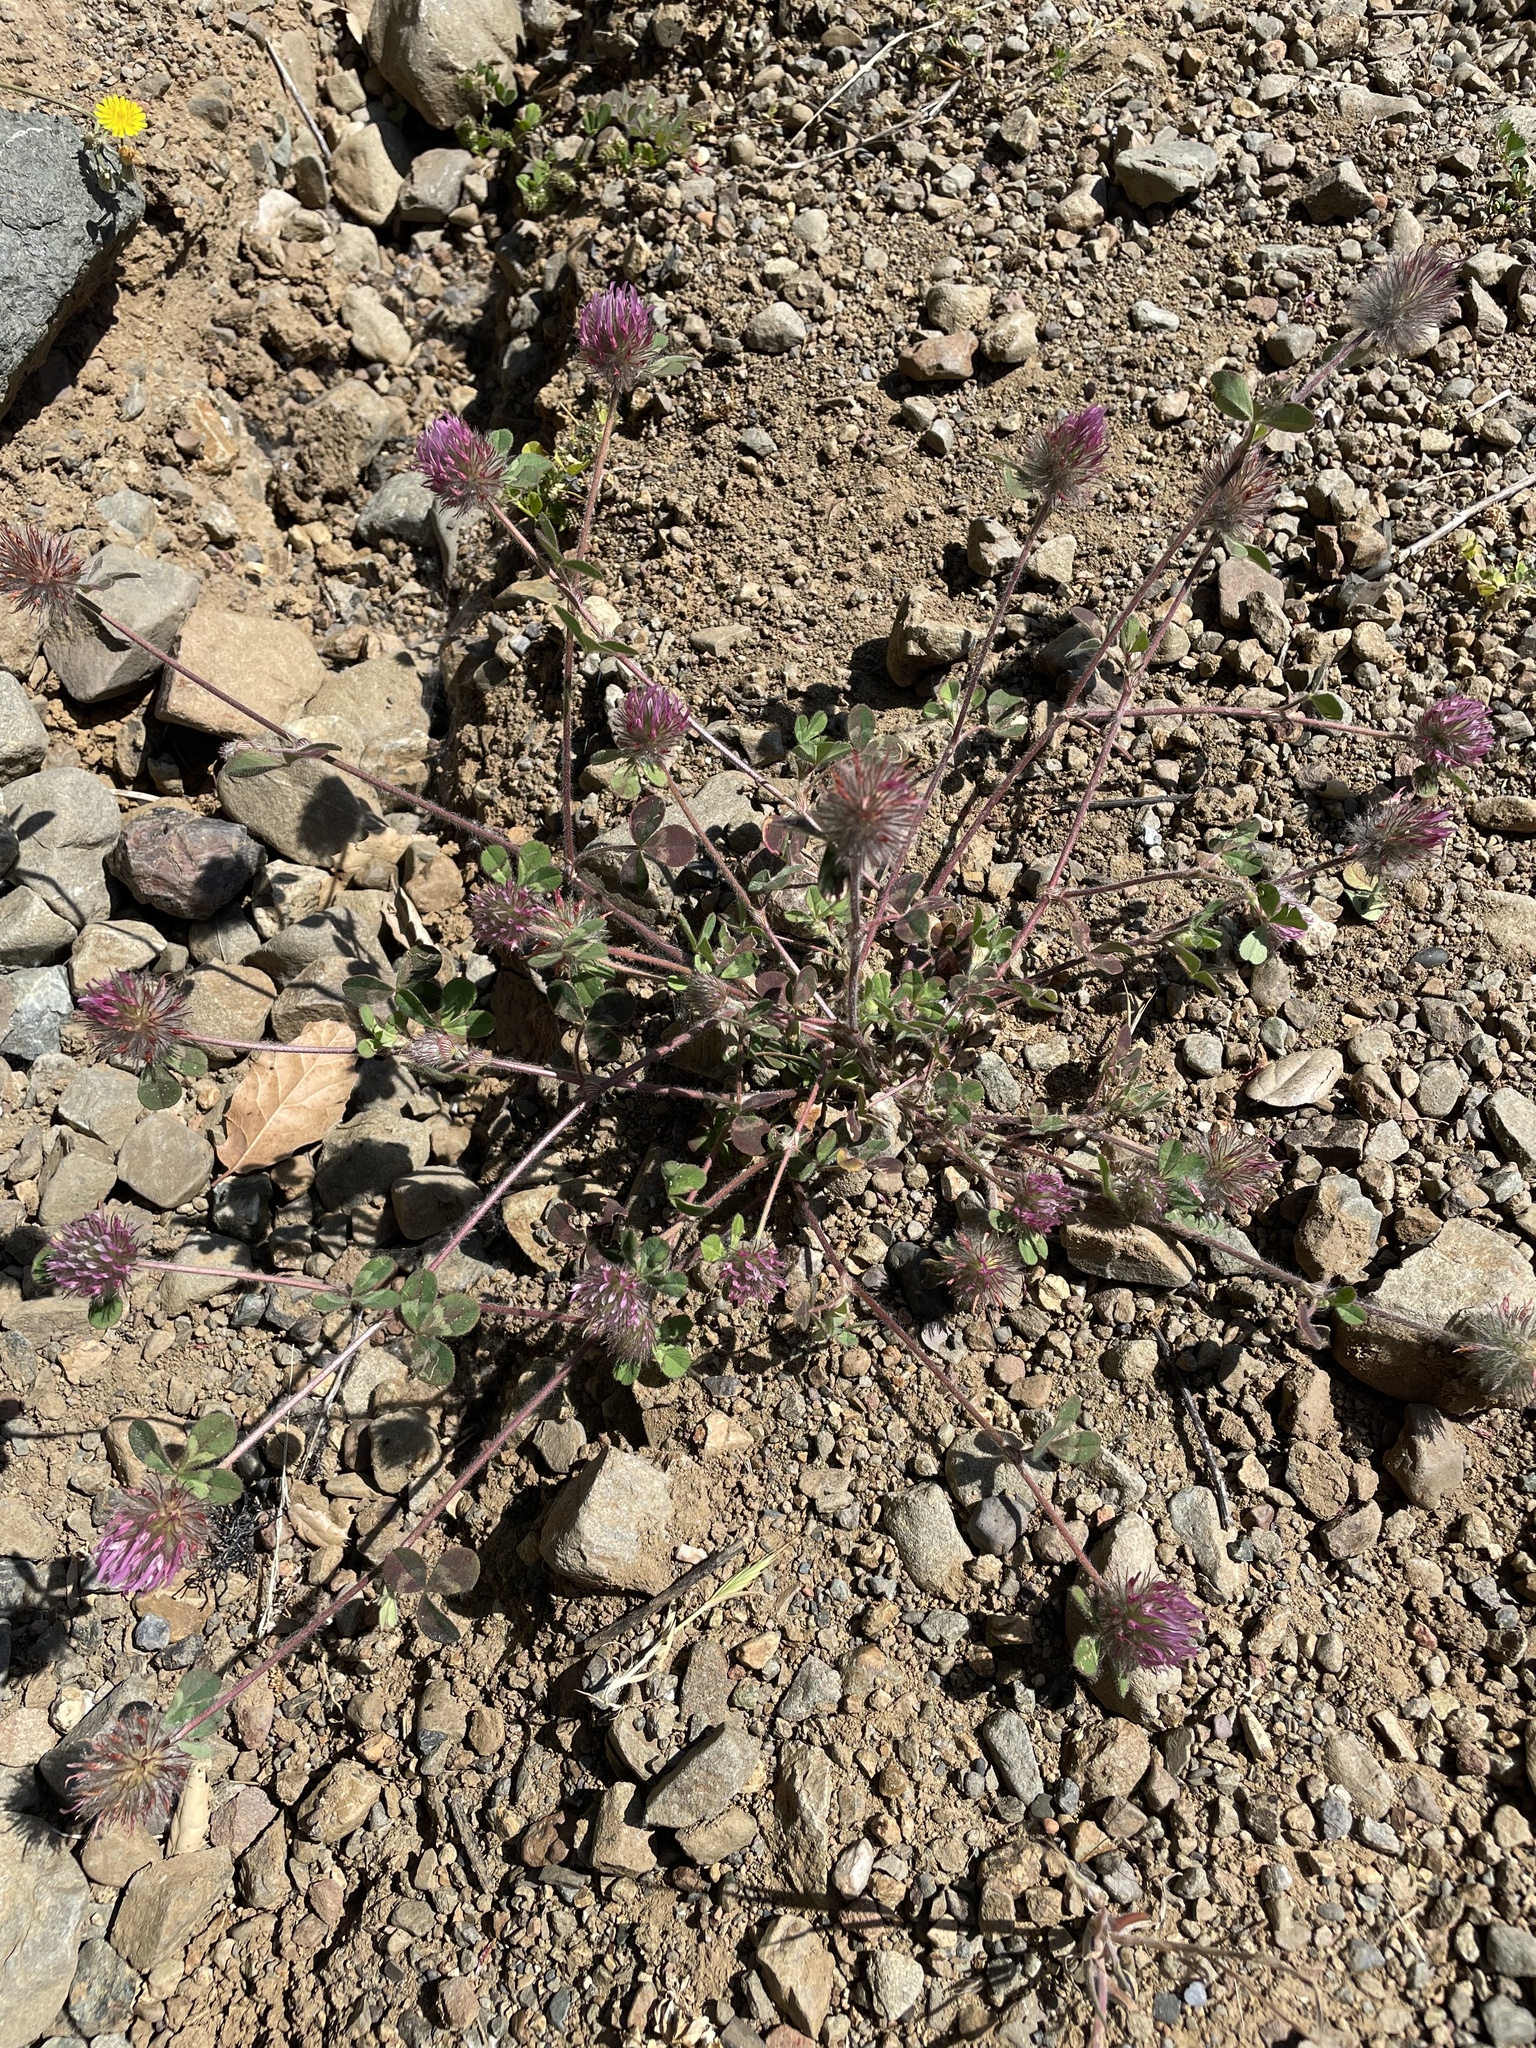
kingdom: Plantae
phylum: Tracheophyta
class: Magnoliopsida
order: Fabales
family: Fabaceae
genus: Trifolium
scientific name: Trifolium hirtum
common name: Rose clover
